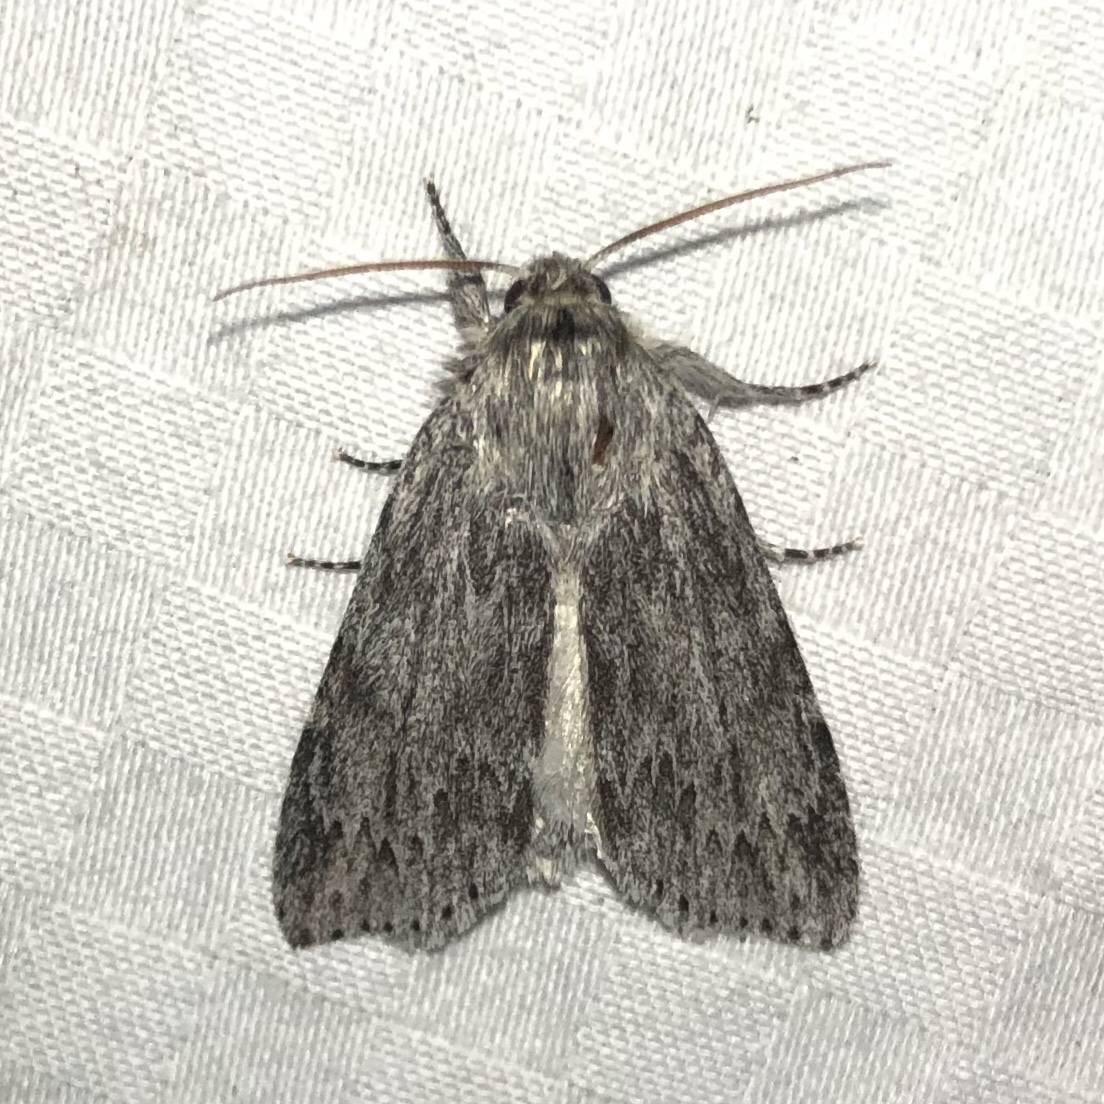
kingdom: Animalia
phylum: Arthropoda
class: Insecta
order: Lepidoptera
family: Noctuidae
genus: Acronicta
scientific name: Acronicta oblinita
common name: Smeared dagger
